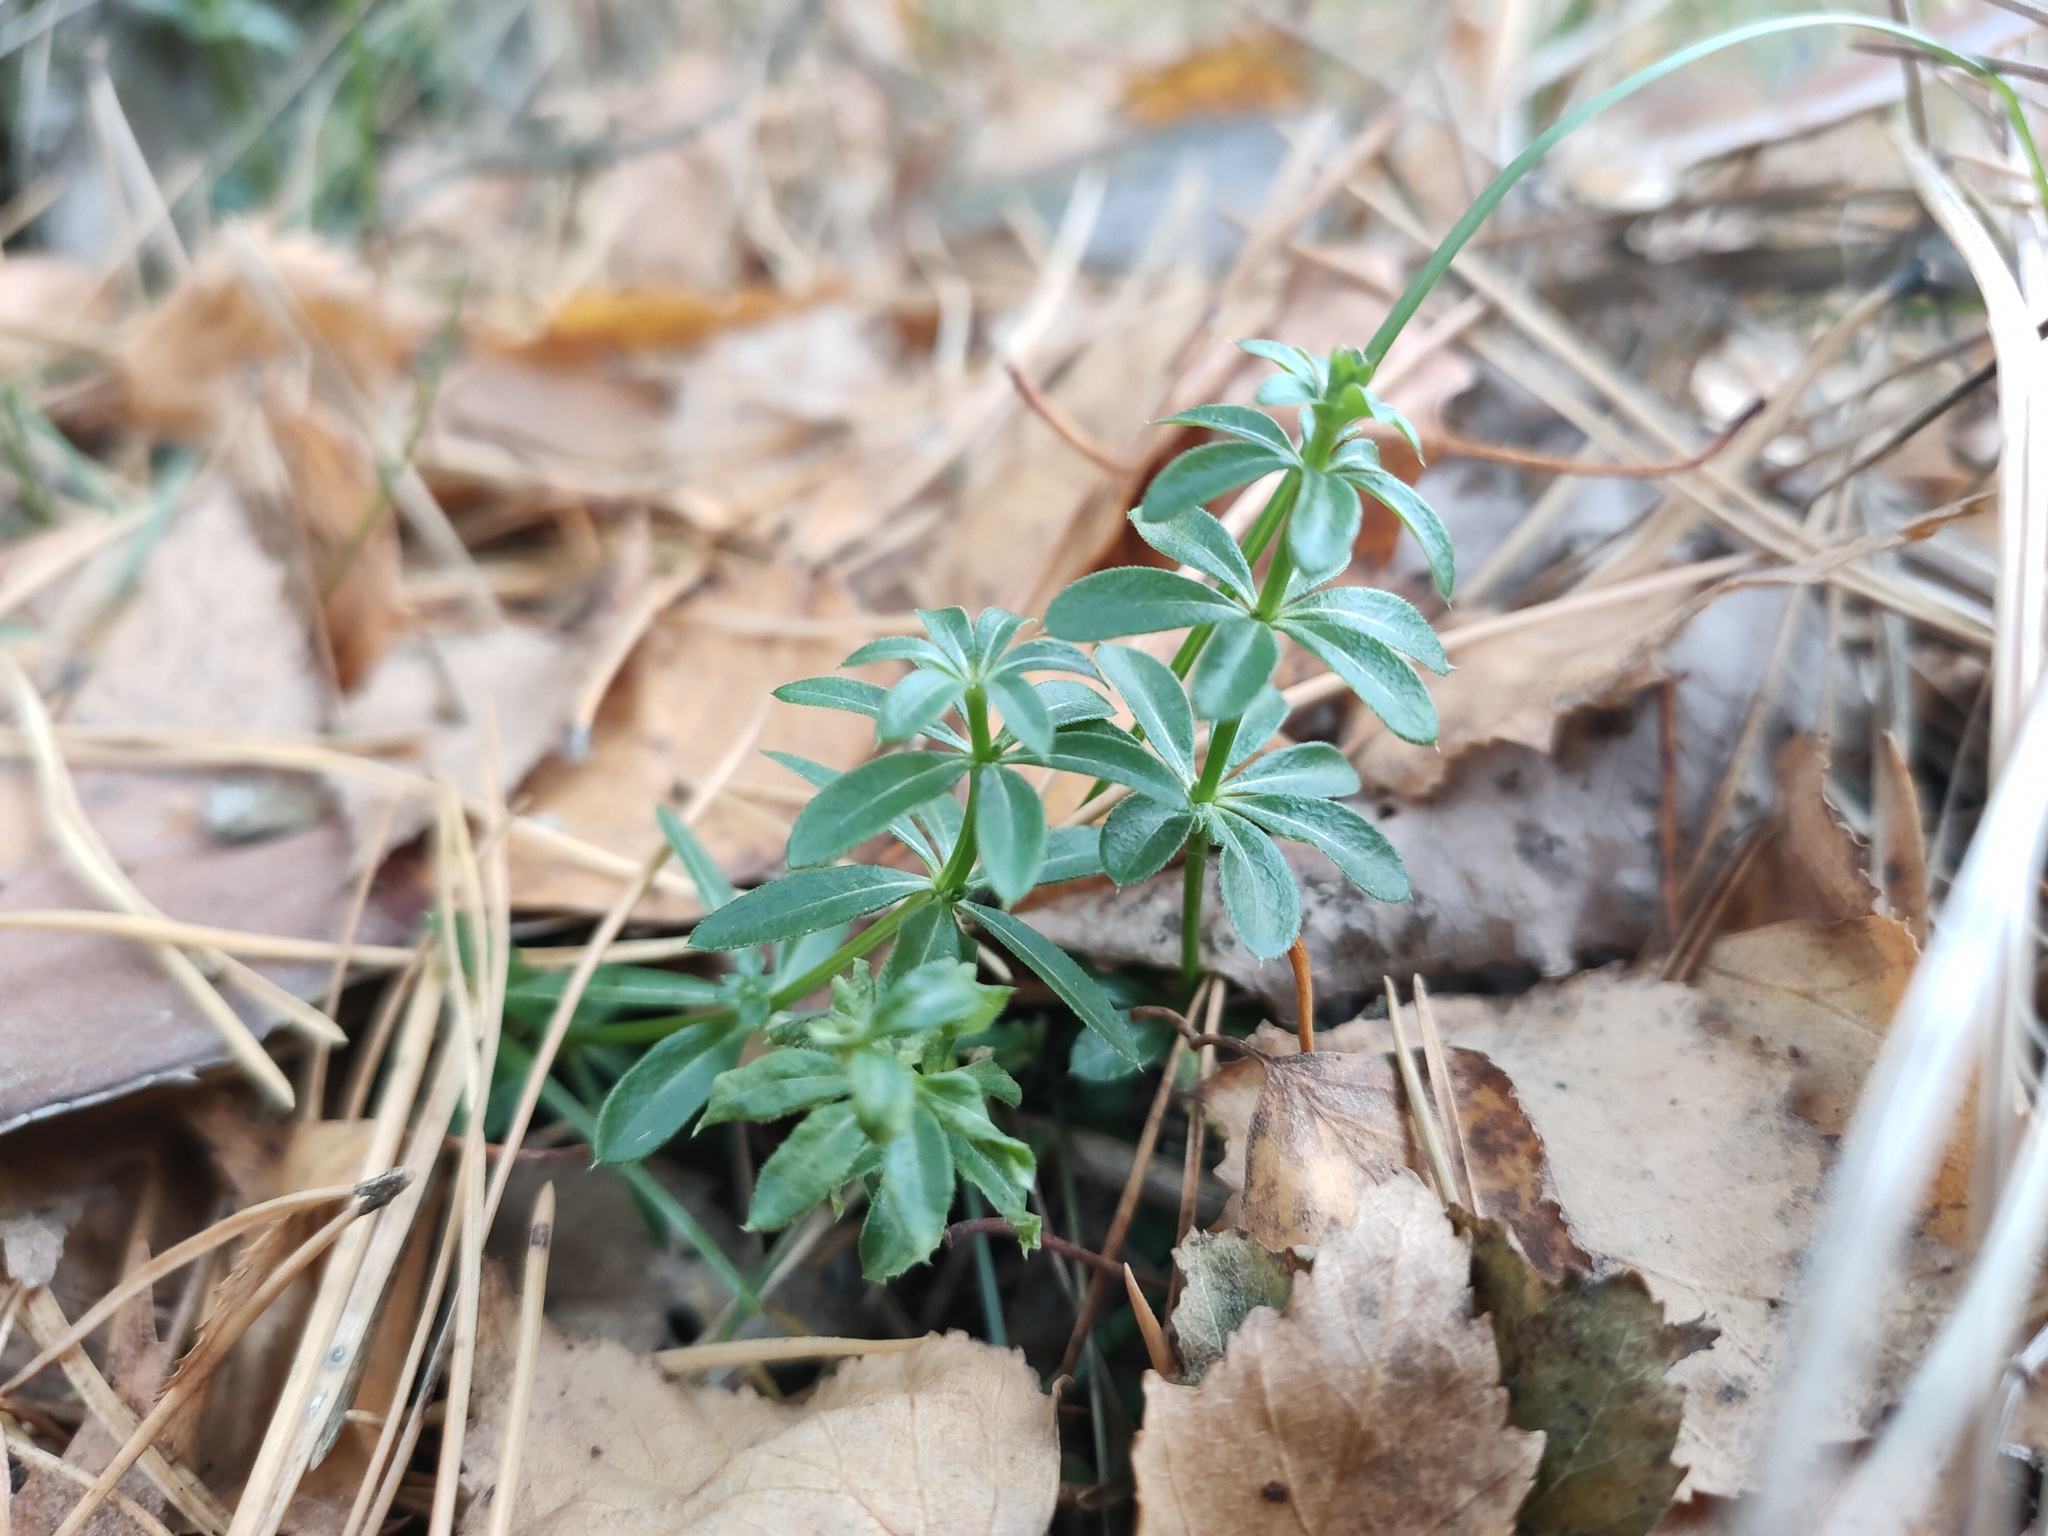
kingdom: Plantae
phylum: Tracheophyta
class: Magnoliopsida
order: Gentianales
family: Rubiaceae
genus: Galium
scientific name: Galium mollugo
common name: Hedge bedstraw
